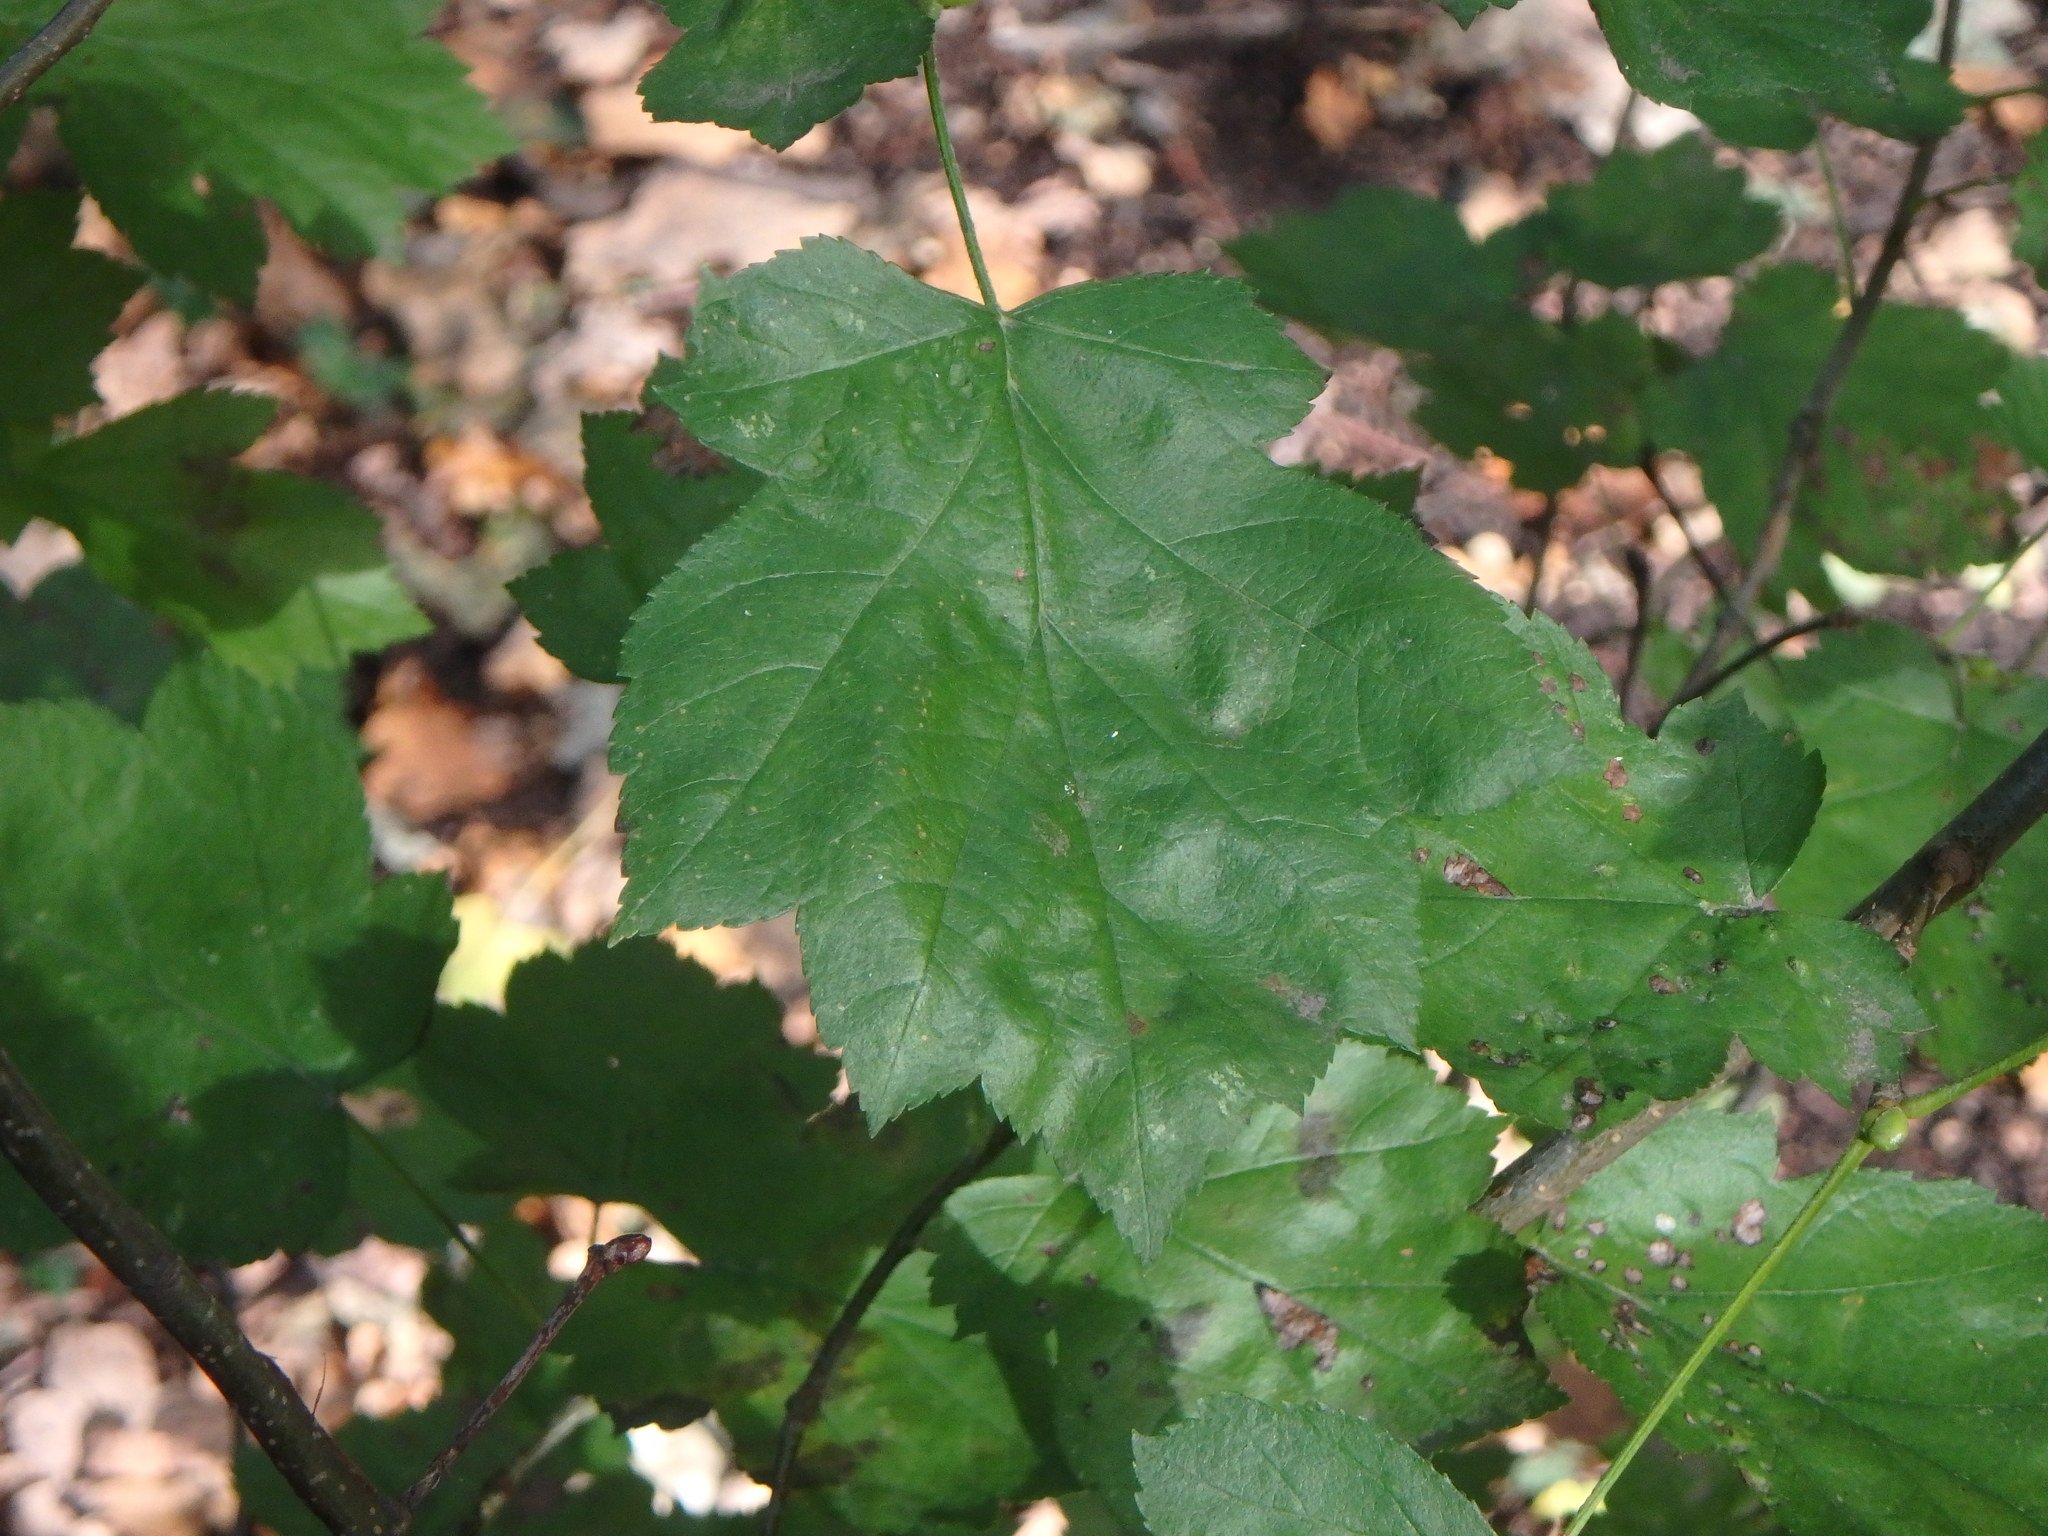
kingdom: Plantae
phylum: Tracheophyta
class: Magnoliopsida
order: Rosales
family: Rosaceae
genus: Torminalis
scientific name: Torminalis glaberrima
